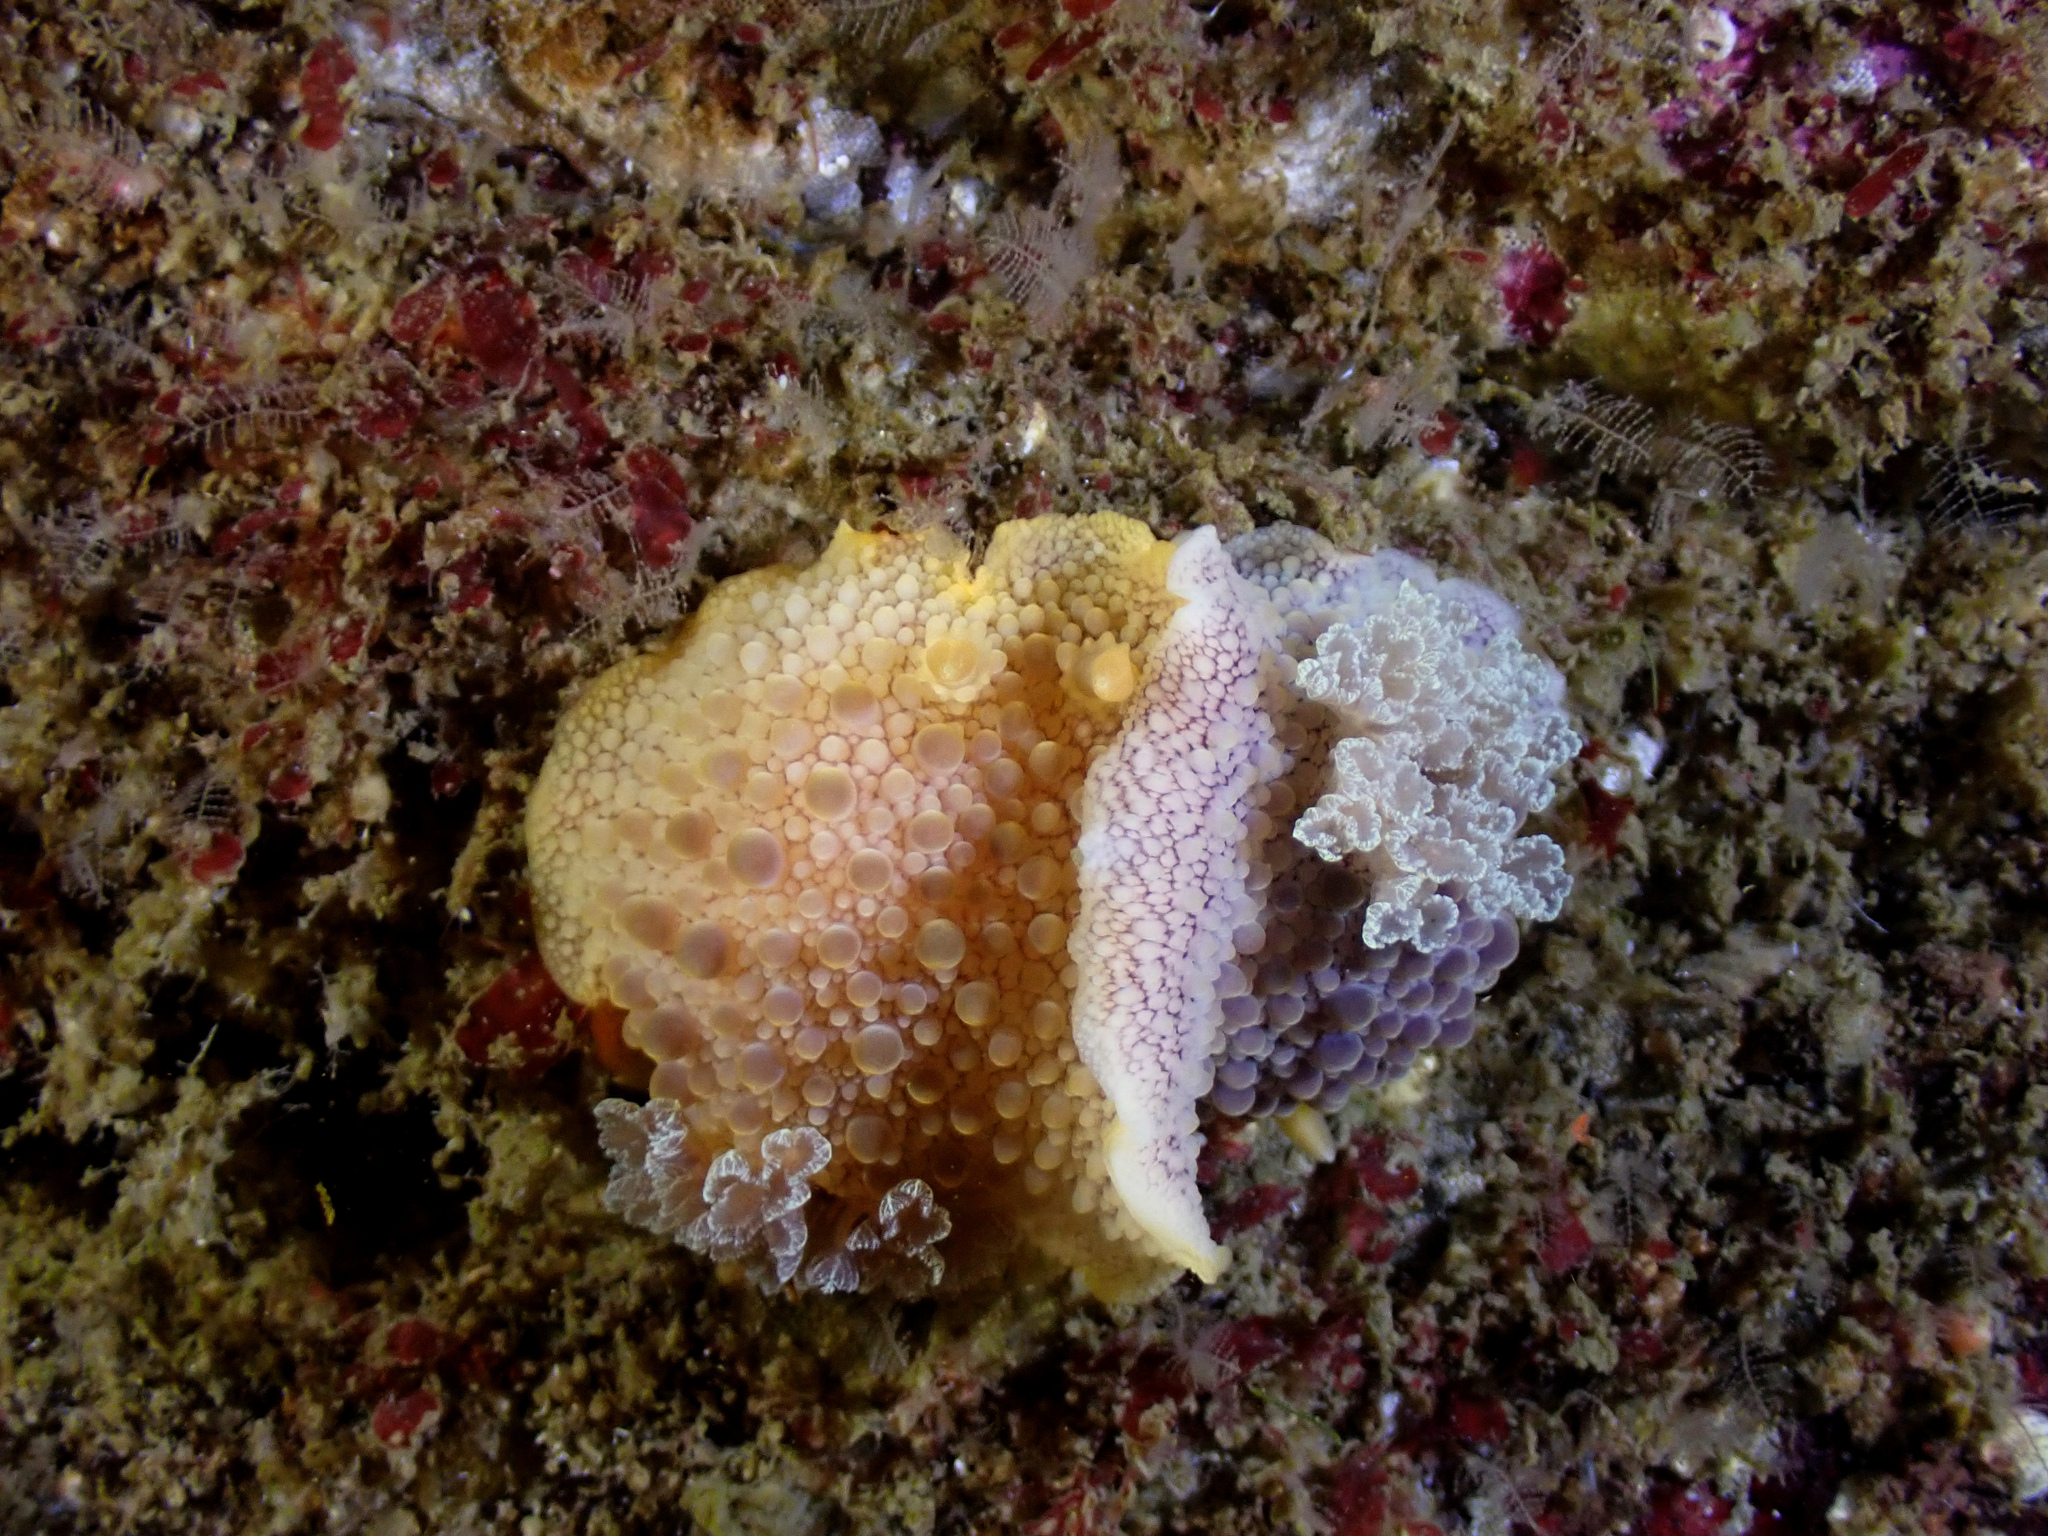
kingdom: Animalia
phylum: Mollusca
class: Gastropoda
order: Nudibranchia
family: Dorididae
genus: Doris
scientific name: Doris fontainii
